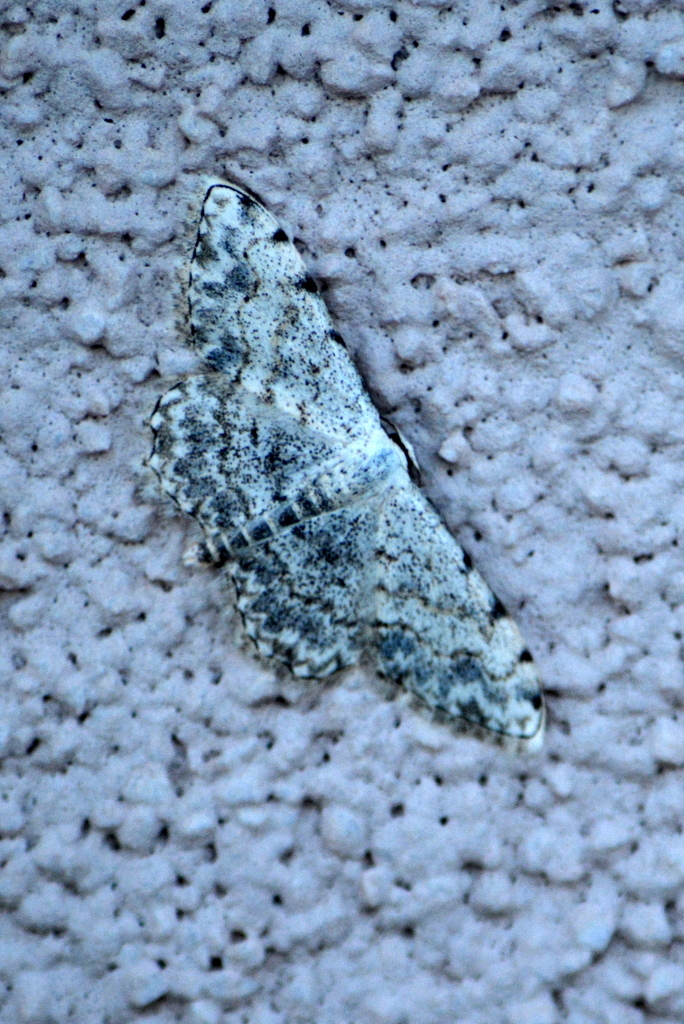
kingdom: Animalia
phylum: Arthropoda
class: Insecta
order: Lepidoptera
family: Geometridae
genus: Scopula
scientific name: Scopula submutata
